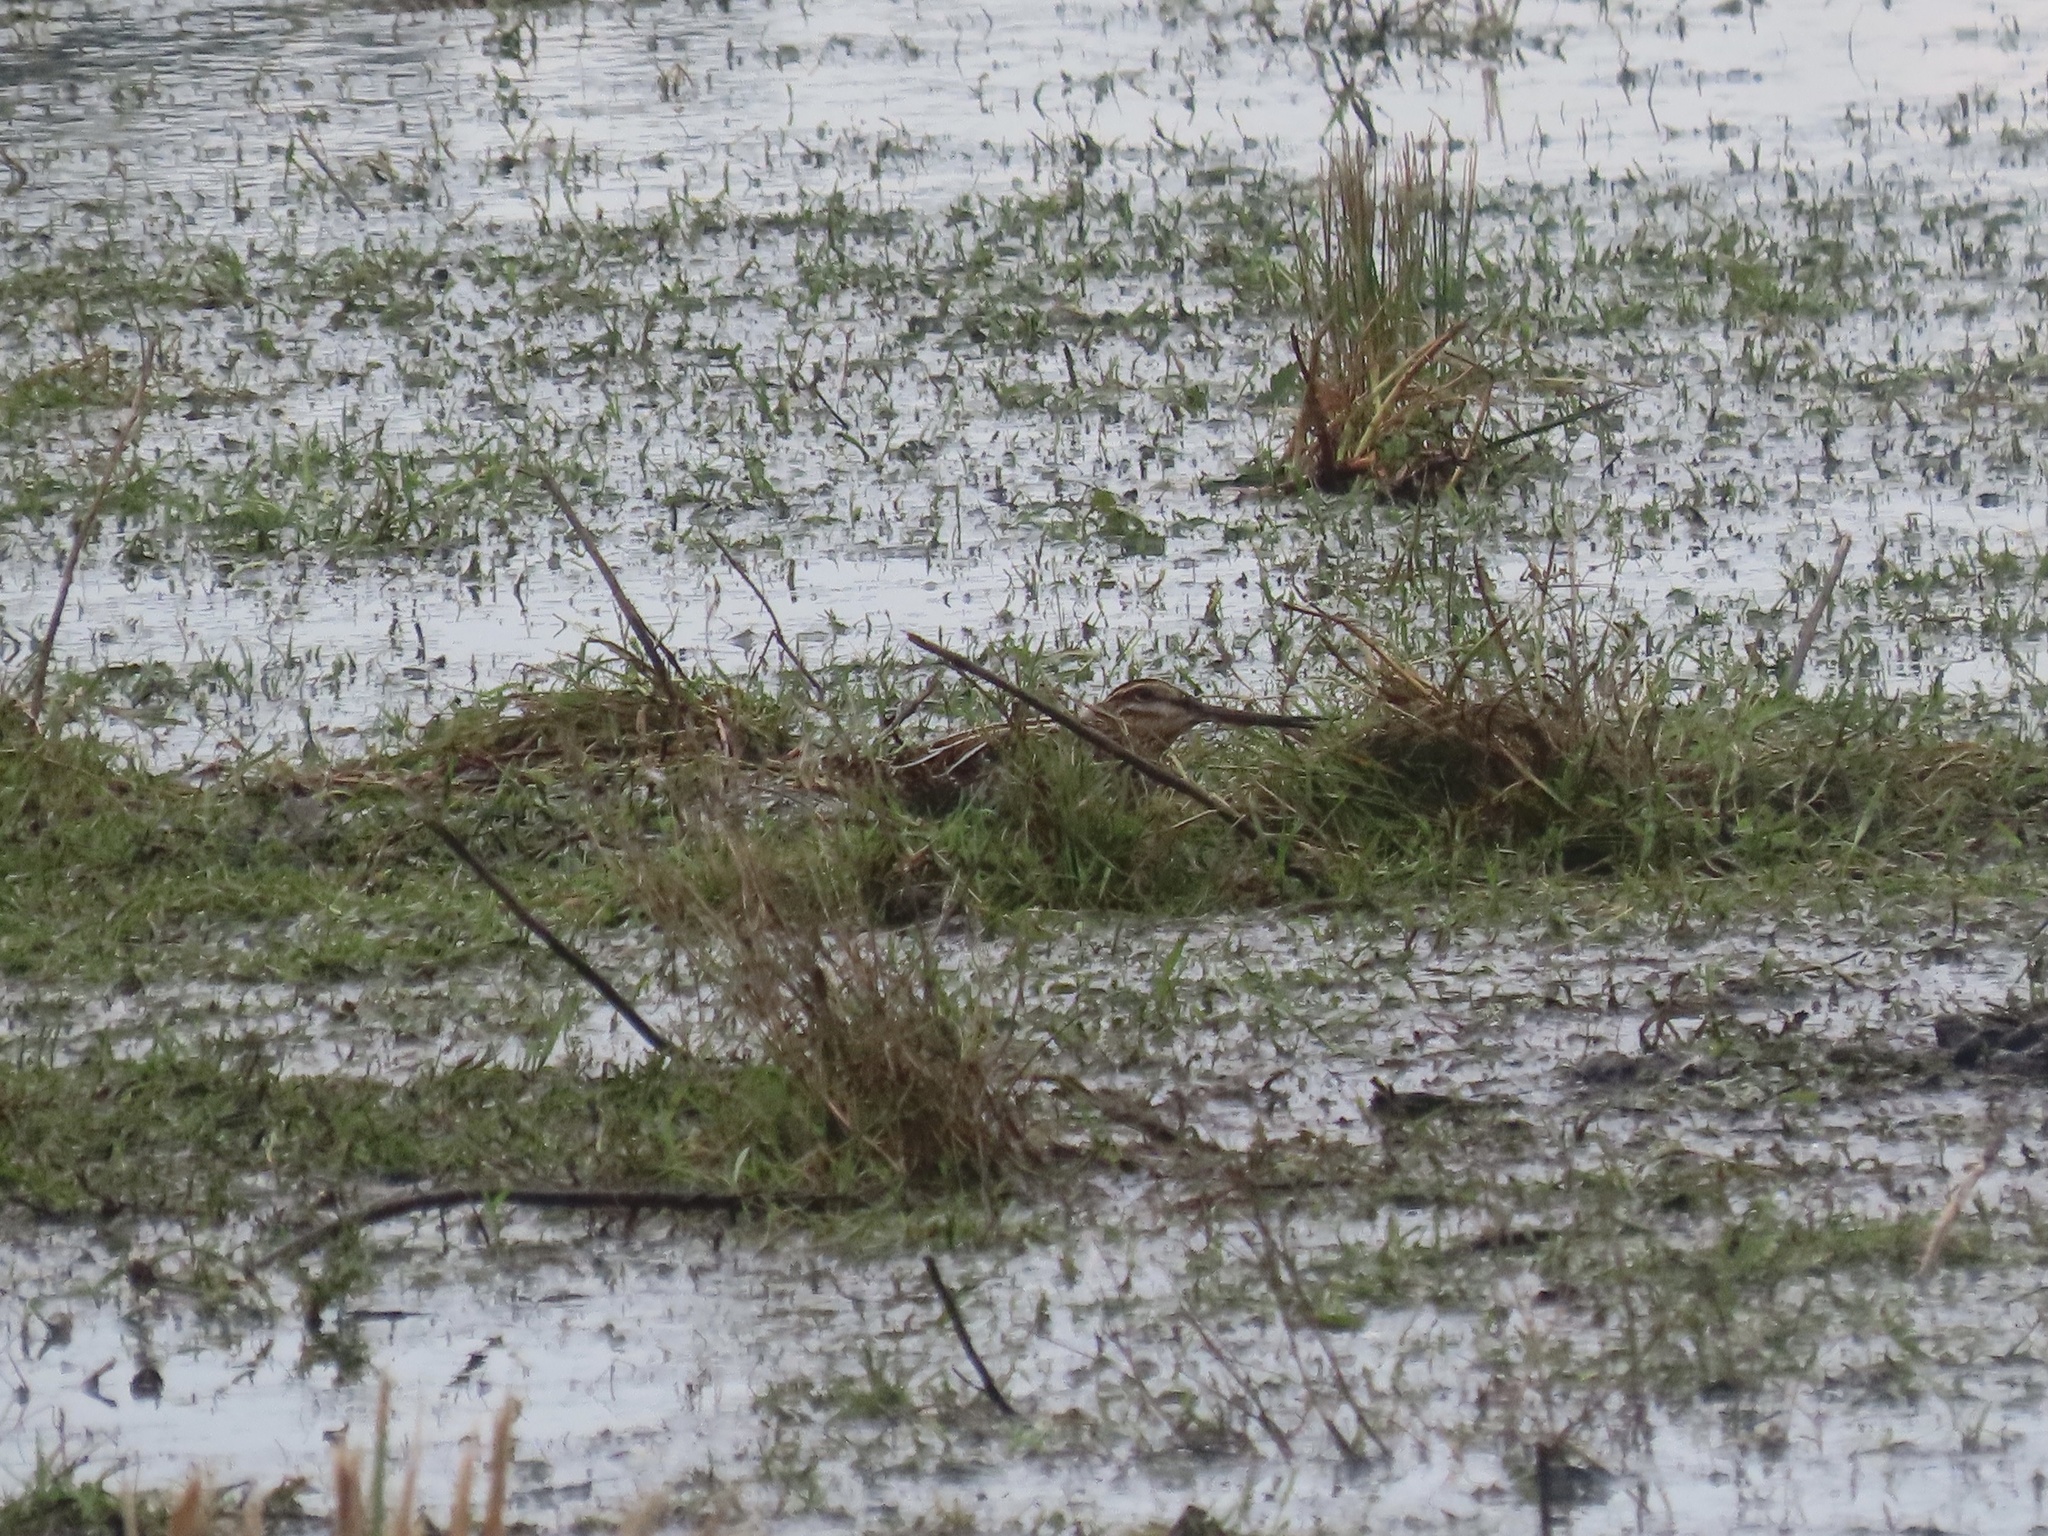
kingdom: Animalia
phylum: Chordata
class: Aves
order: Charadriiformes
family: Scolopacidae
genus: Gallinago
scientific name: Gallinago delicata
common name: Wilson's snipe
